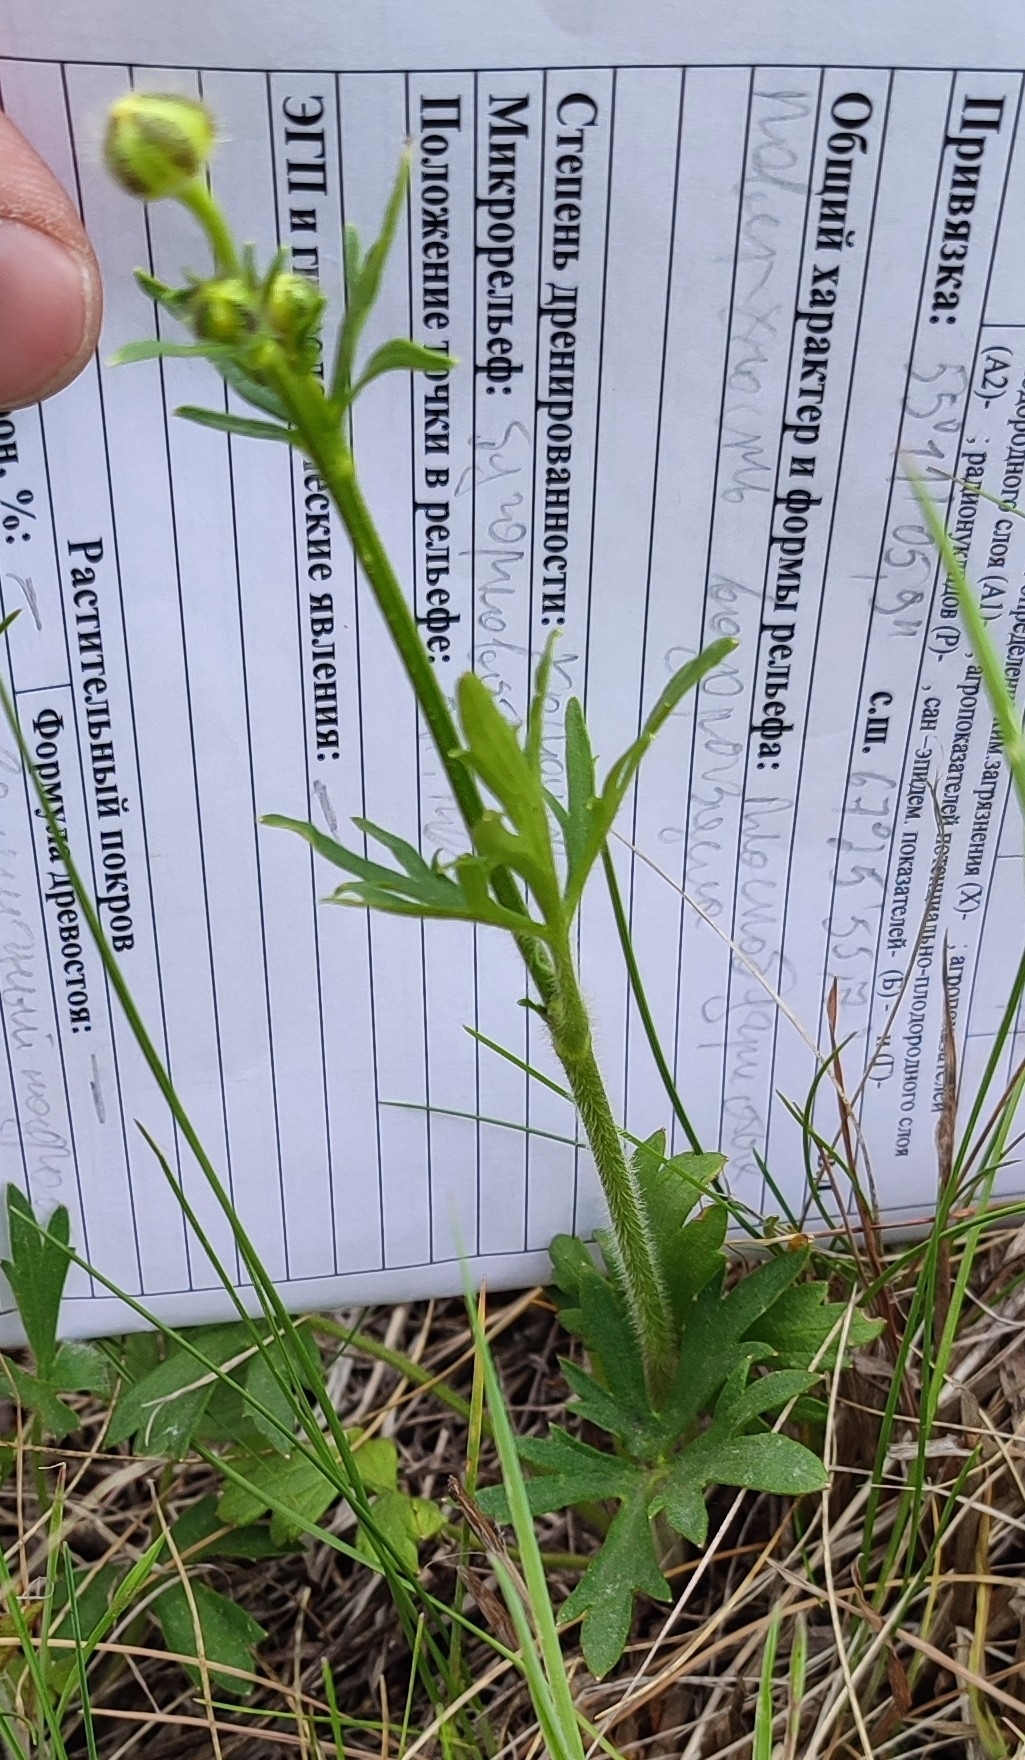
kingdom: Plantae
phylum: Tracheophyta
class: Magnoliopsida
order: Ranunculales
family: Ranunculaceae
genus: Ranunculus
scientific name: Ranunculus polyanthemos
